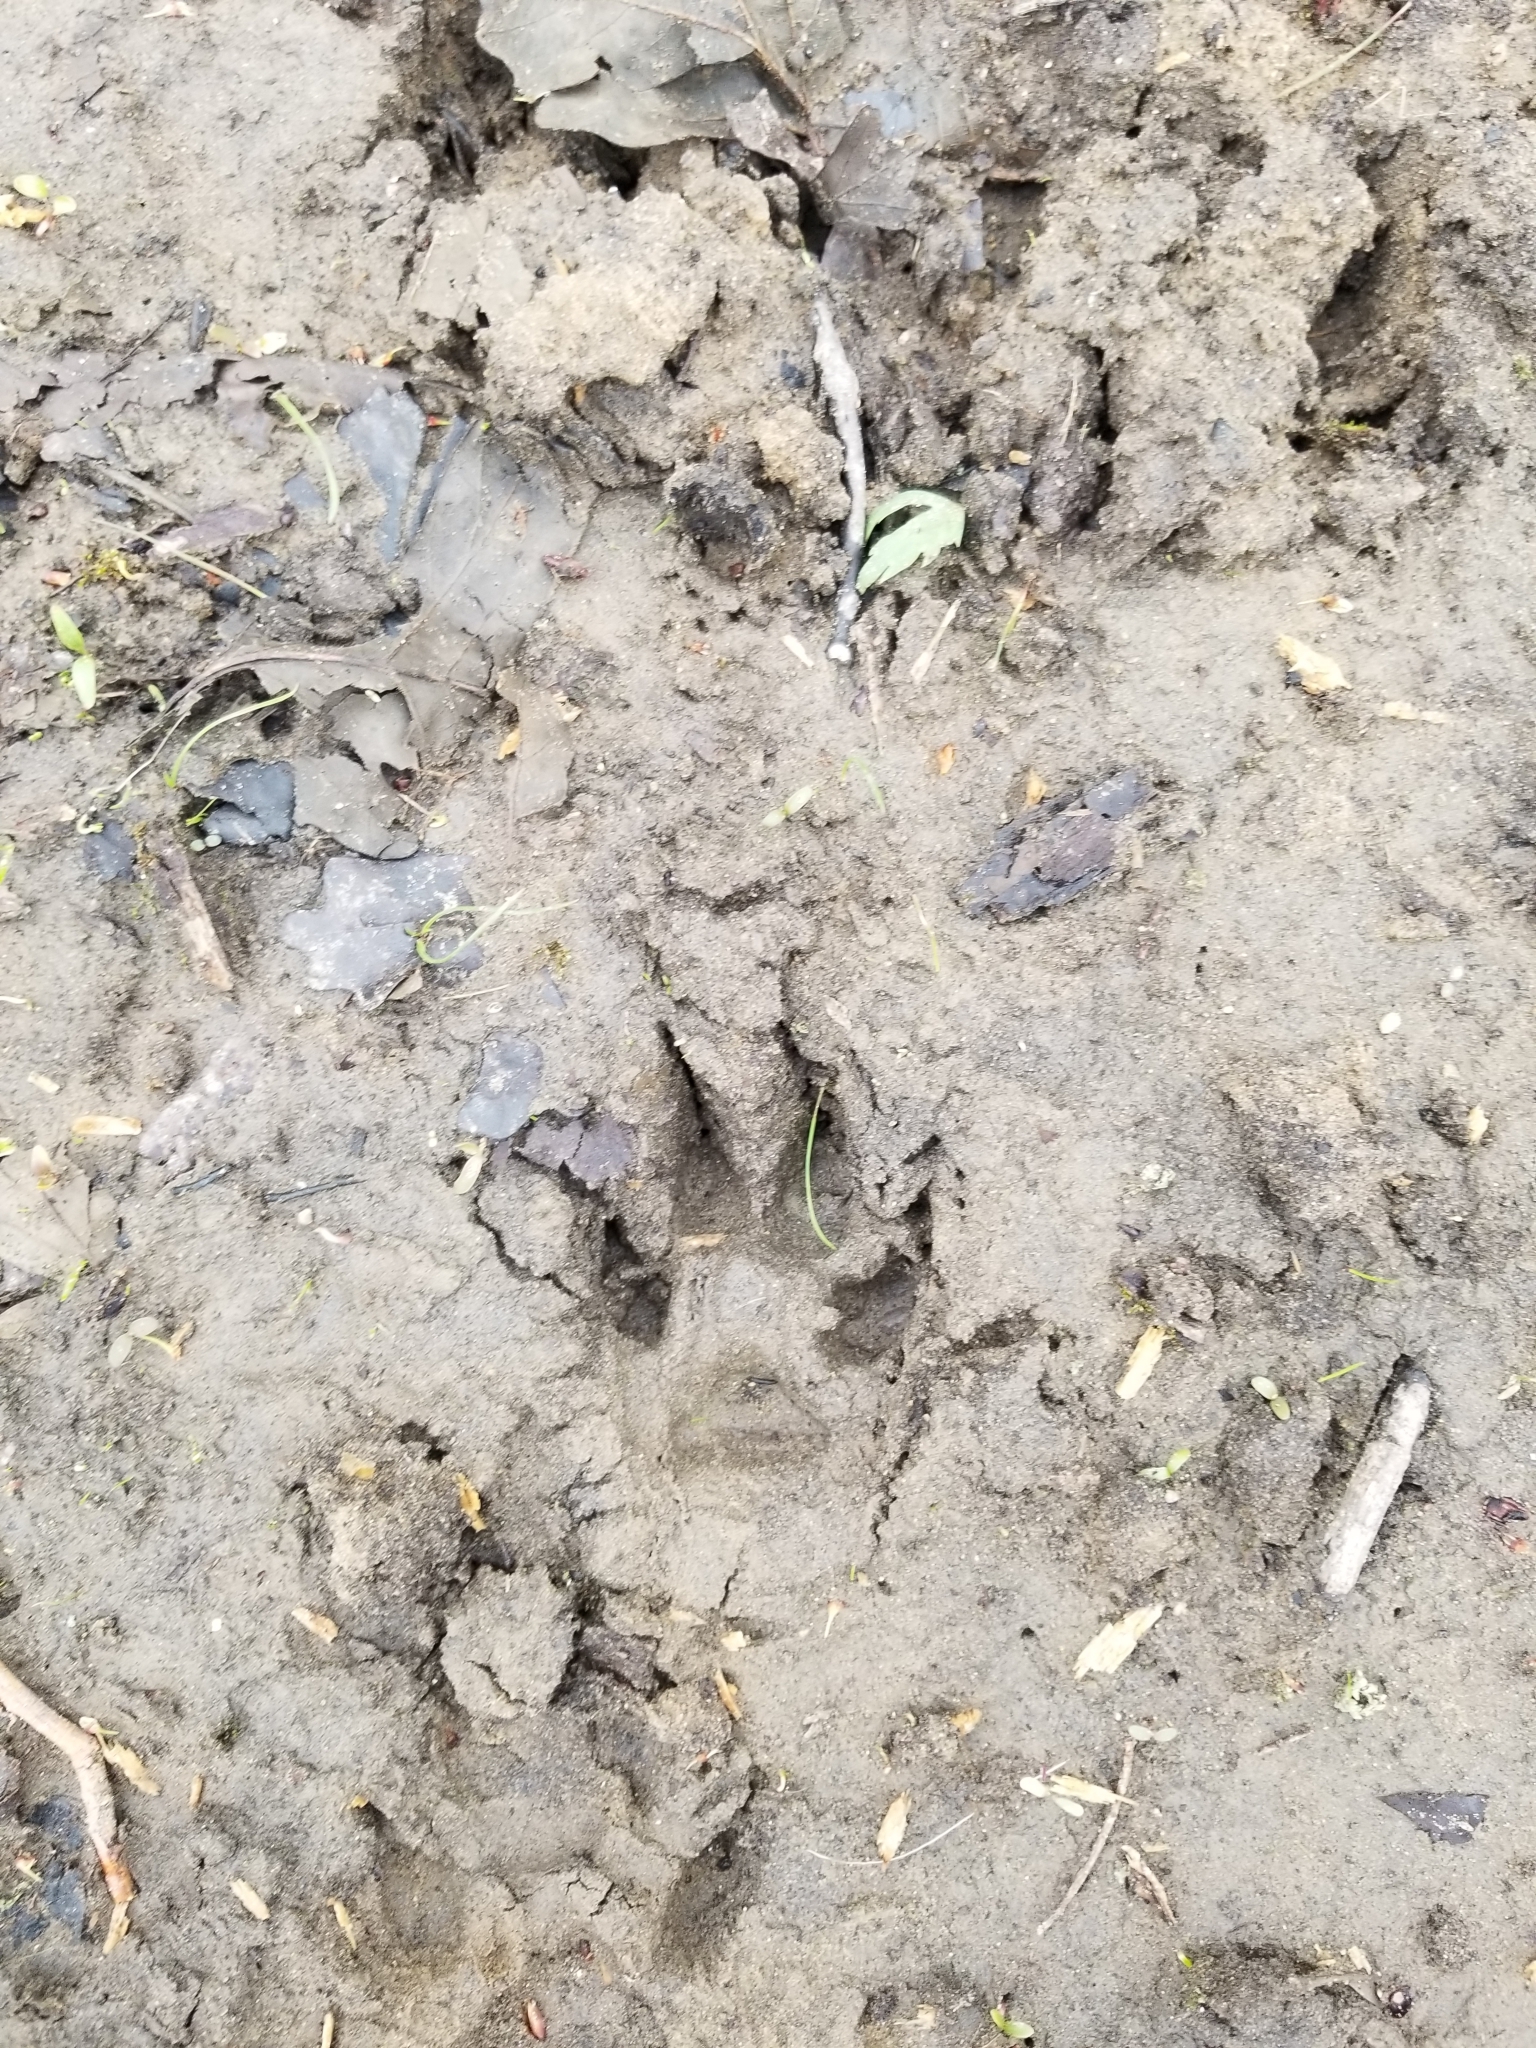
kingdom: Animalia
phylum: Chordata
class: Mammalia
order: Carnivora
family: Canidae
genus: Canis
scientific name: Canis latrans
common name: Coyote
